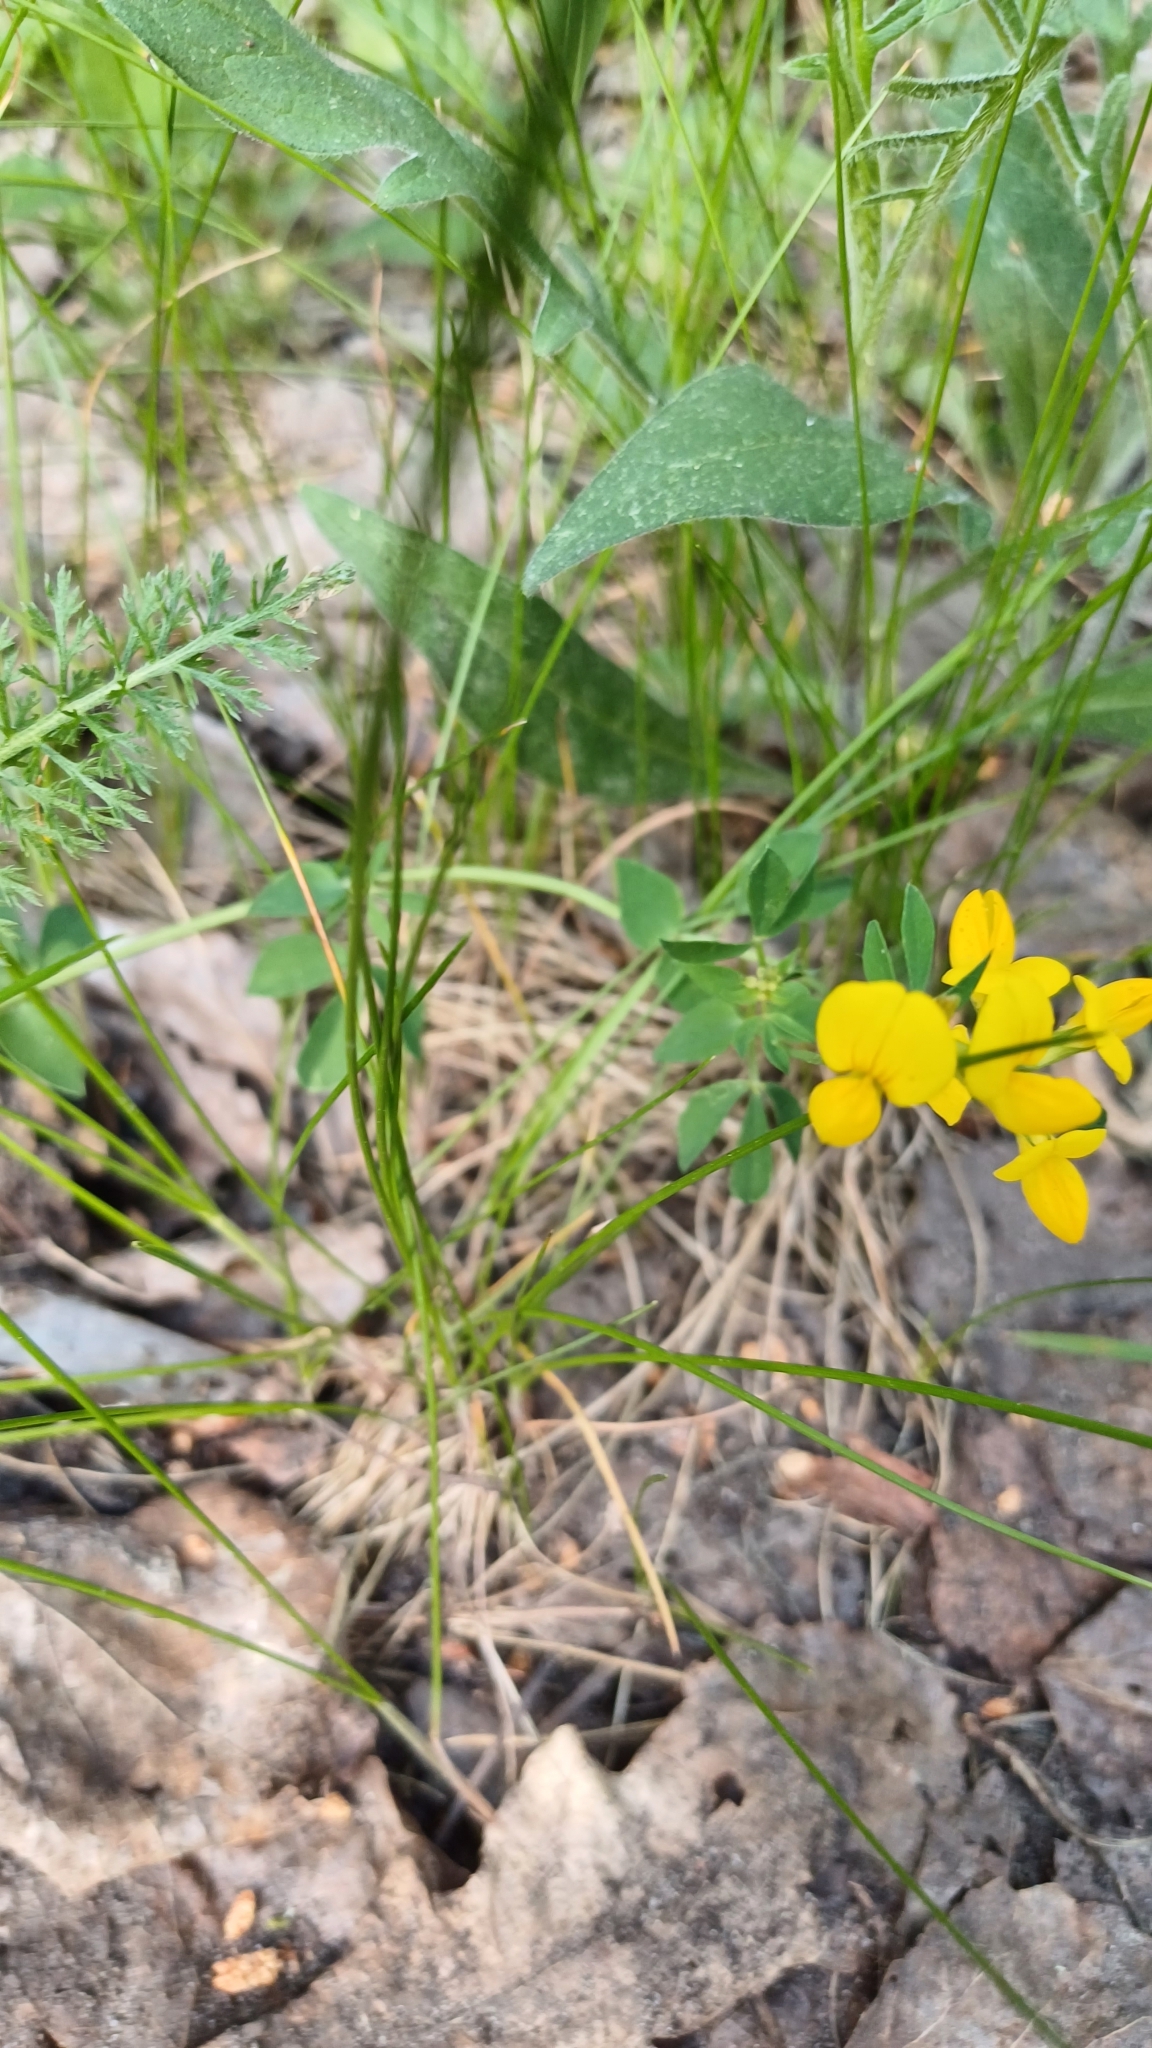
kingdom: Plantae
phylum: Tracheophyta
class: Magnoliopsida
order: Fabales
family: Fabaceae
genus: Lotus
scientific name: Lotus corniculatus
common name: Common bird's-foot-trefoil
